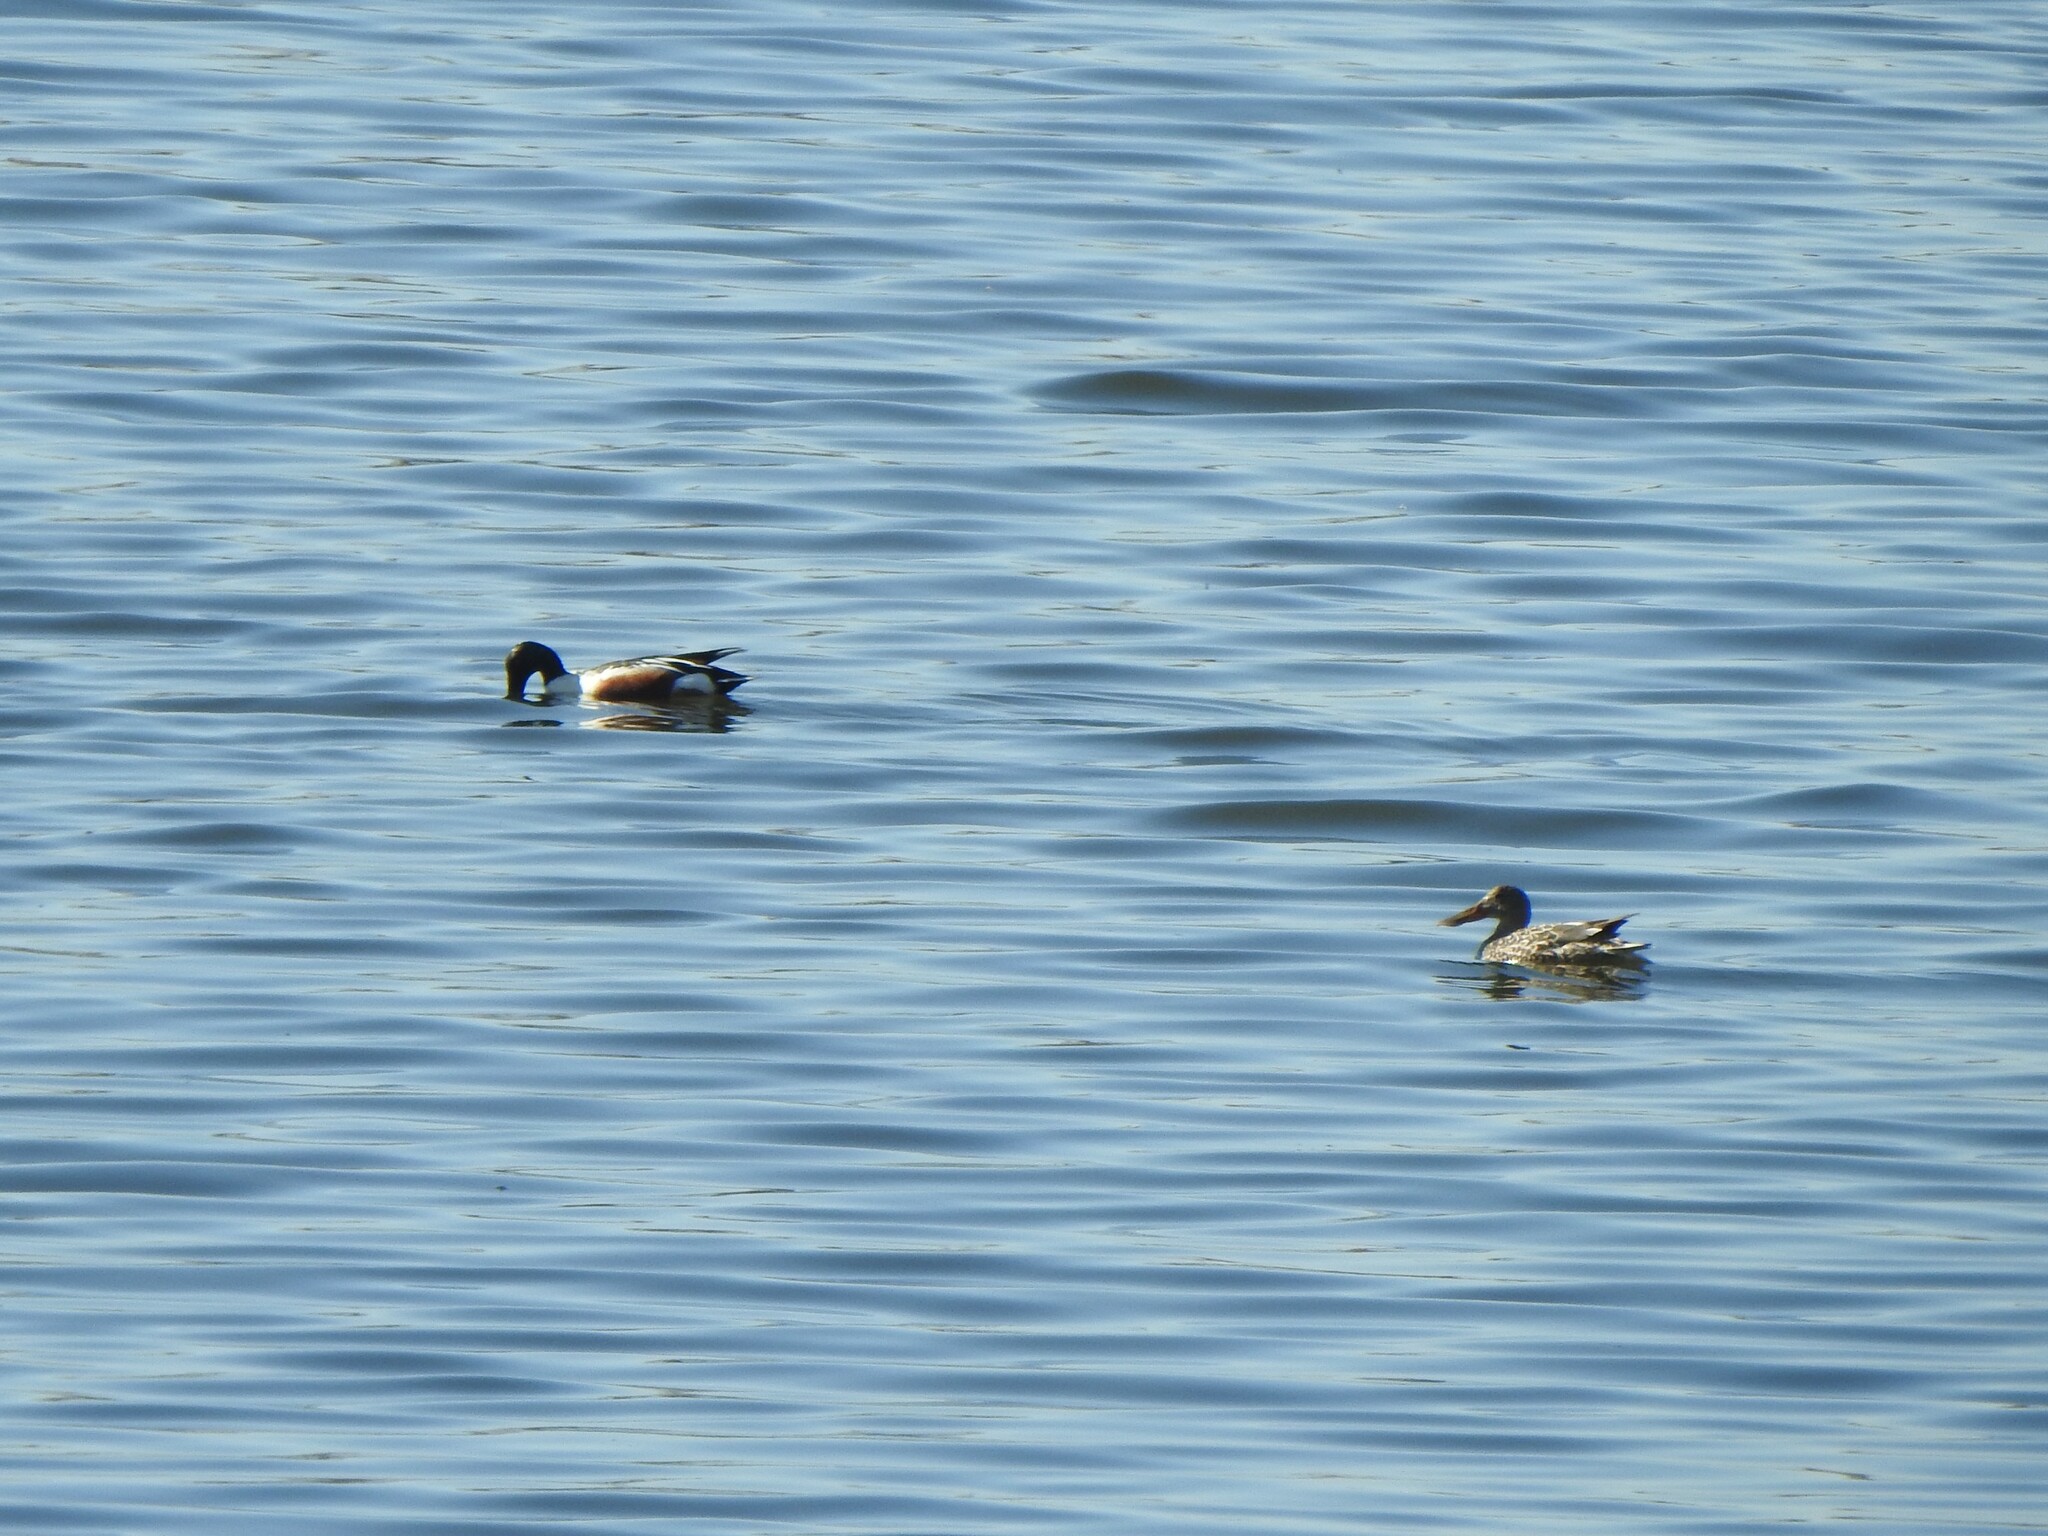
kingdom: Animalia
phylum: Chordata
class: Aves
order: Anseriformes
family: Anatidae
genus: Spatula
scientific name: Spatula clypeata
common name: Northern shoveler
